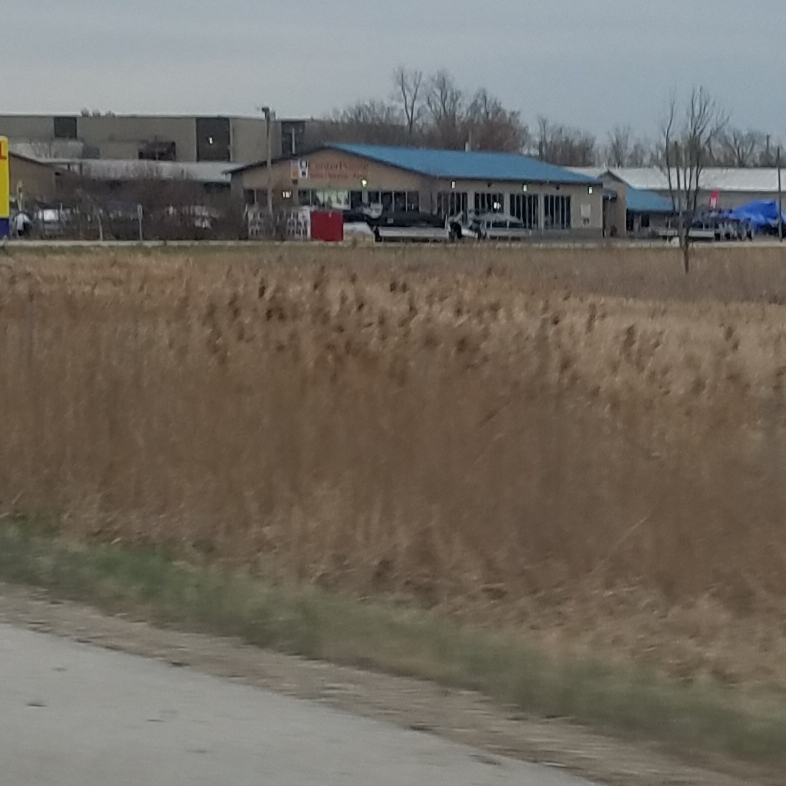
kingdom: Plantae
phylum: Tracheophyta
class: Liliopsida
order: Poales
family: Poaceae
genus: Phragmites
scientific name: Phragmites australis
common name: Common reed
